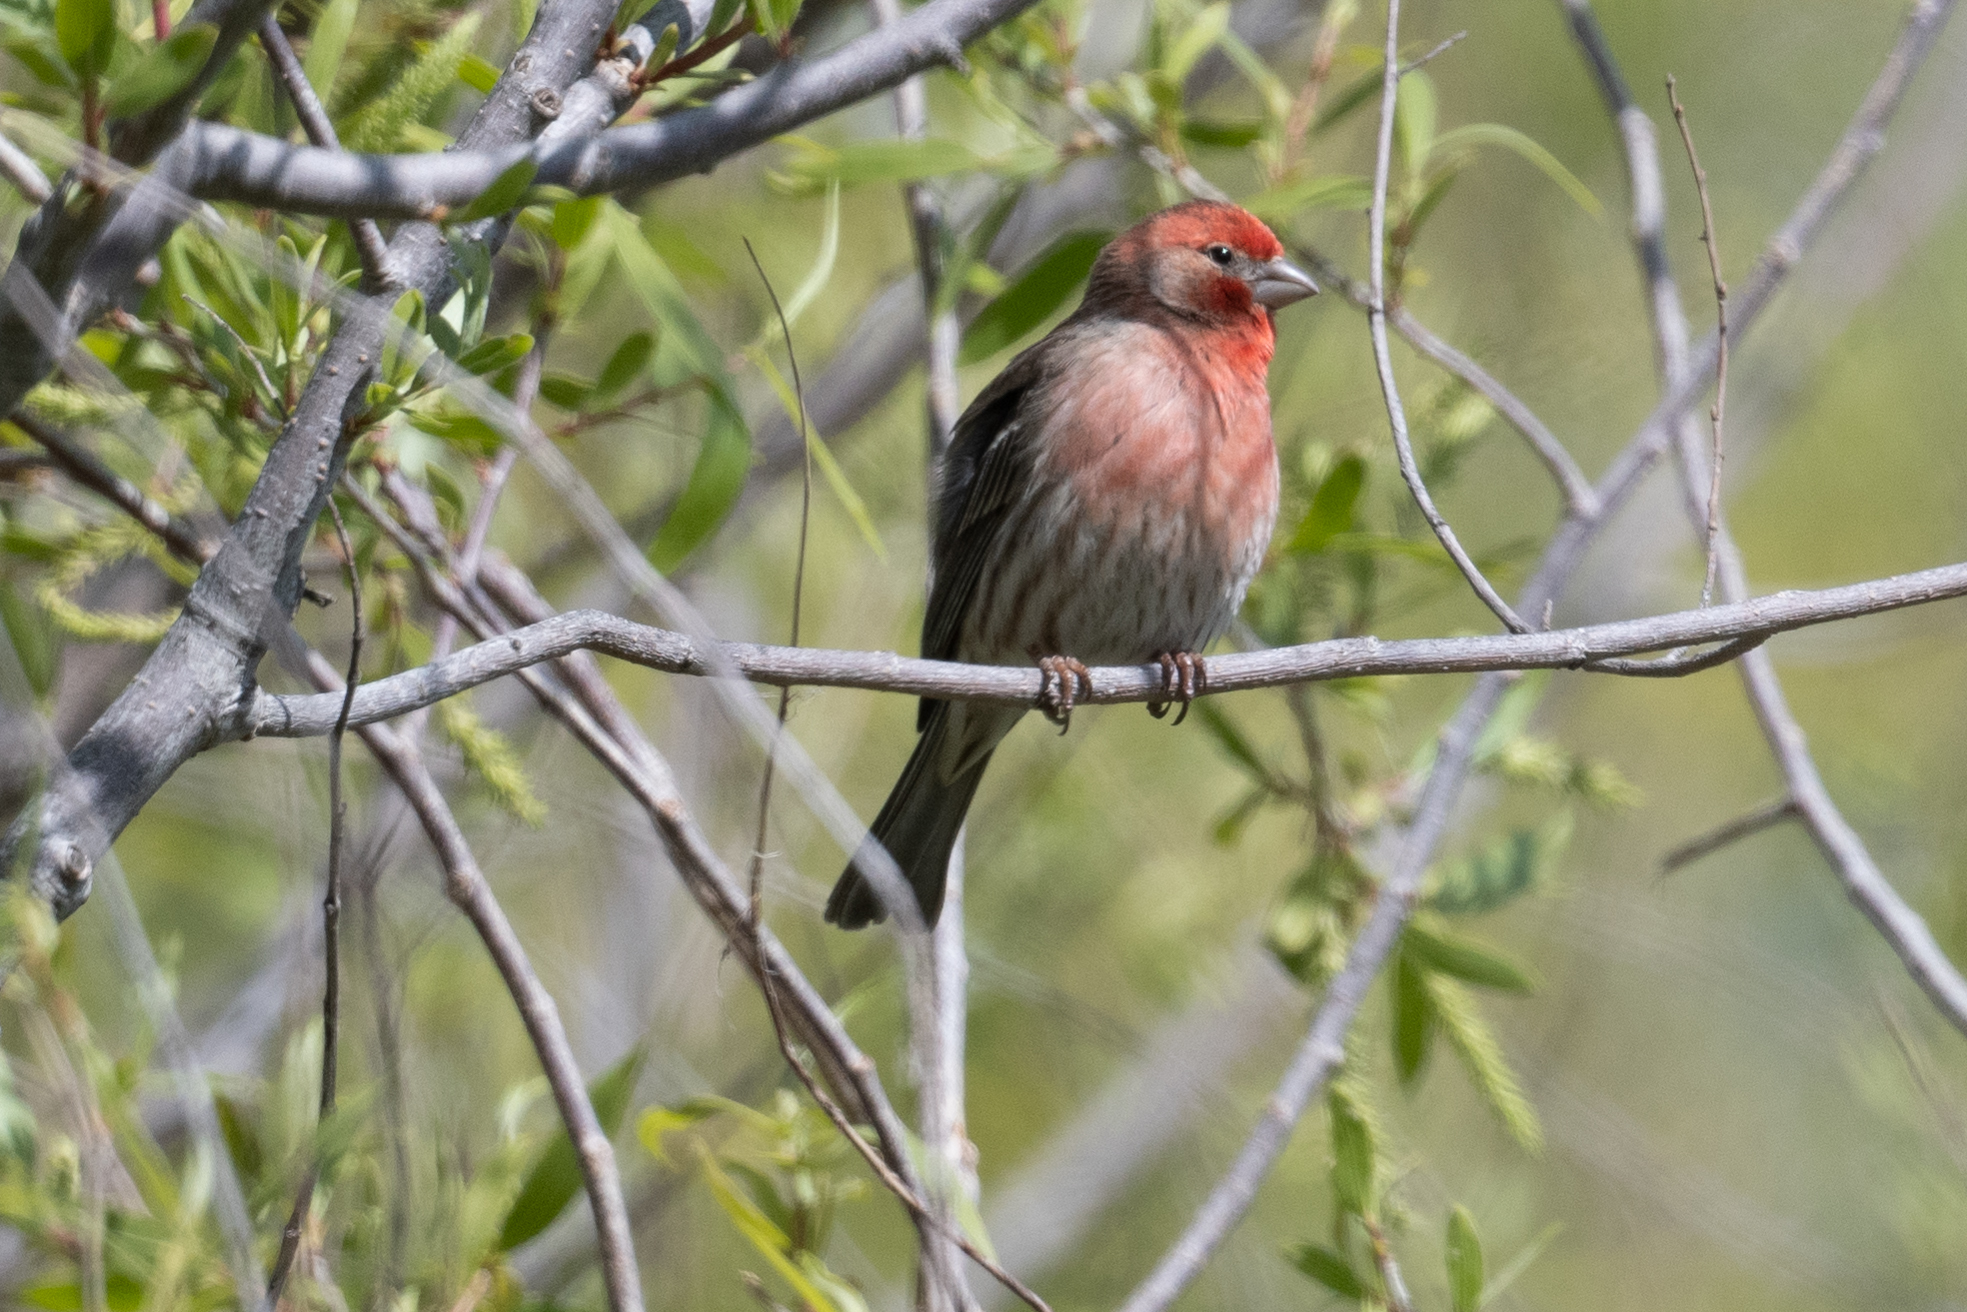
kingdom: Animalia
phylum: Chordata
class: Aves
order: Passeriformes
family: Fringillidae
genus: Haemorhous
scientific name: Haemorhous mexicanus
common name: House finch
